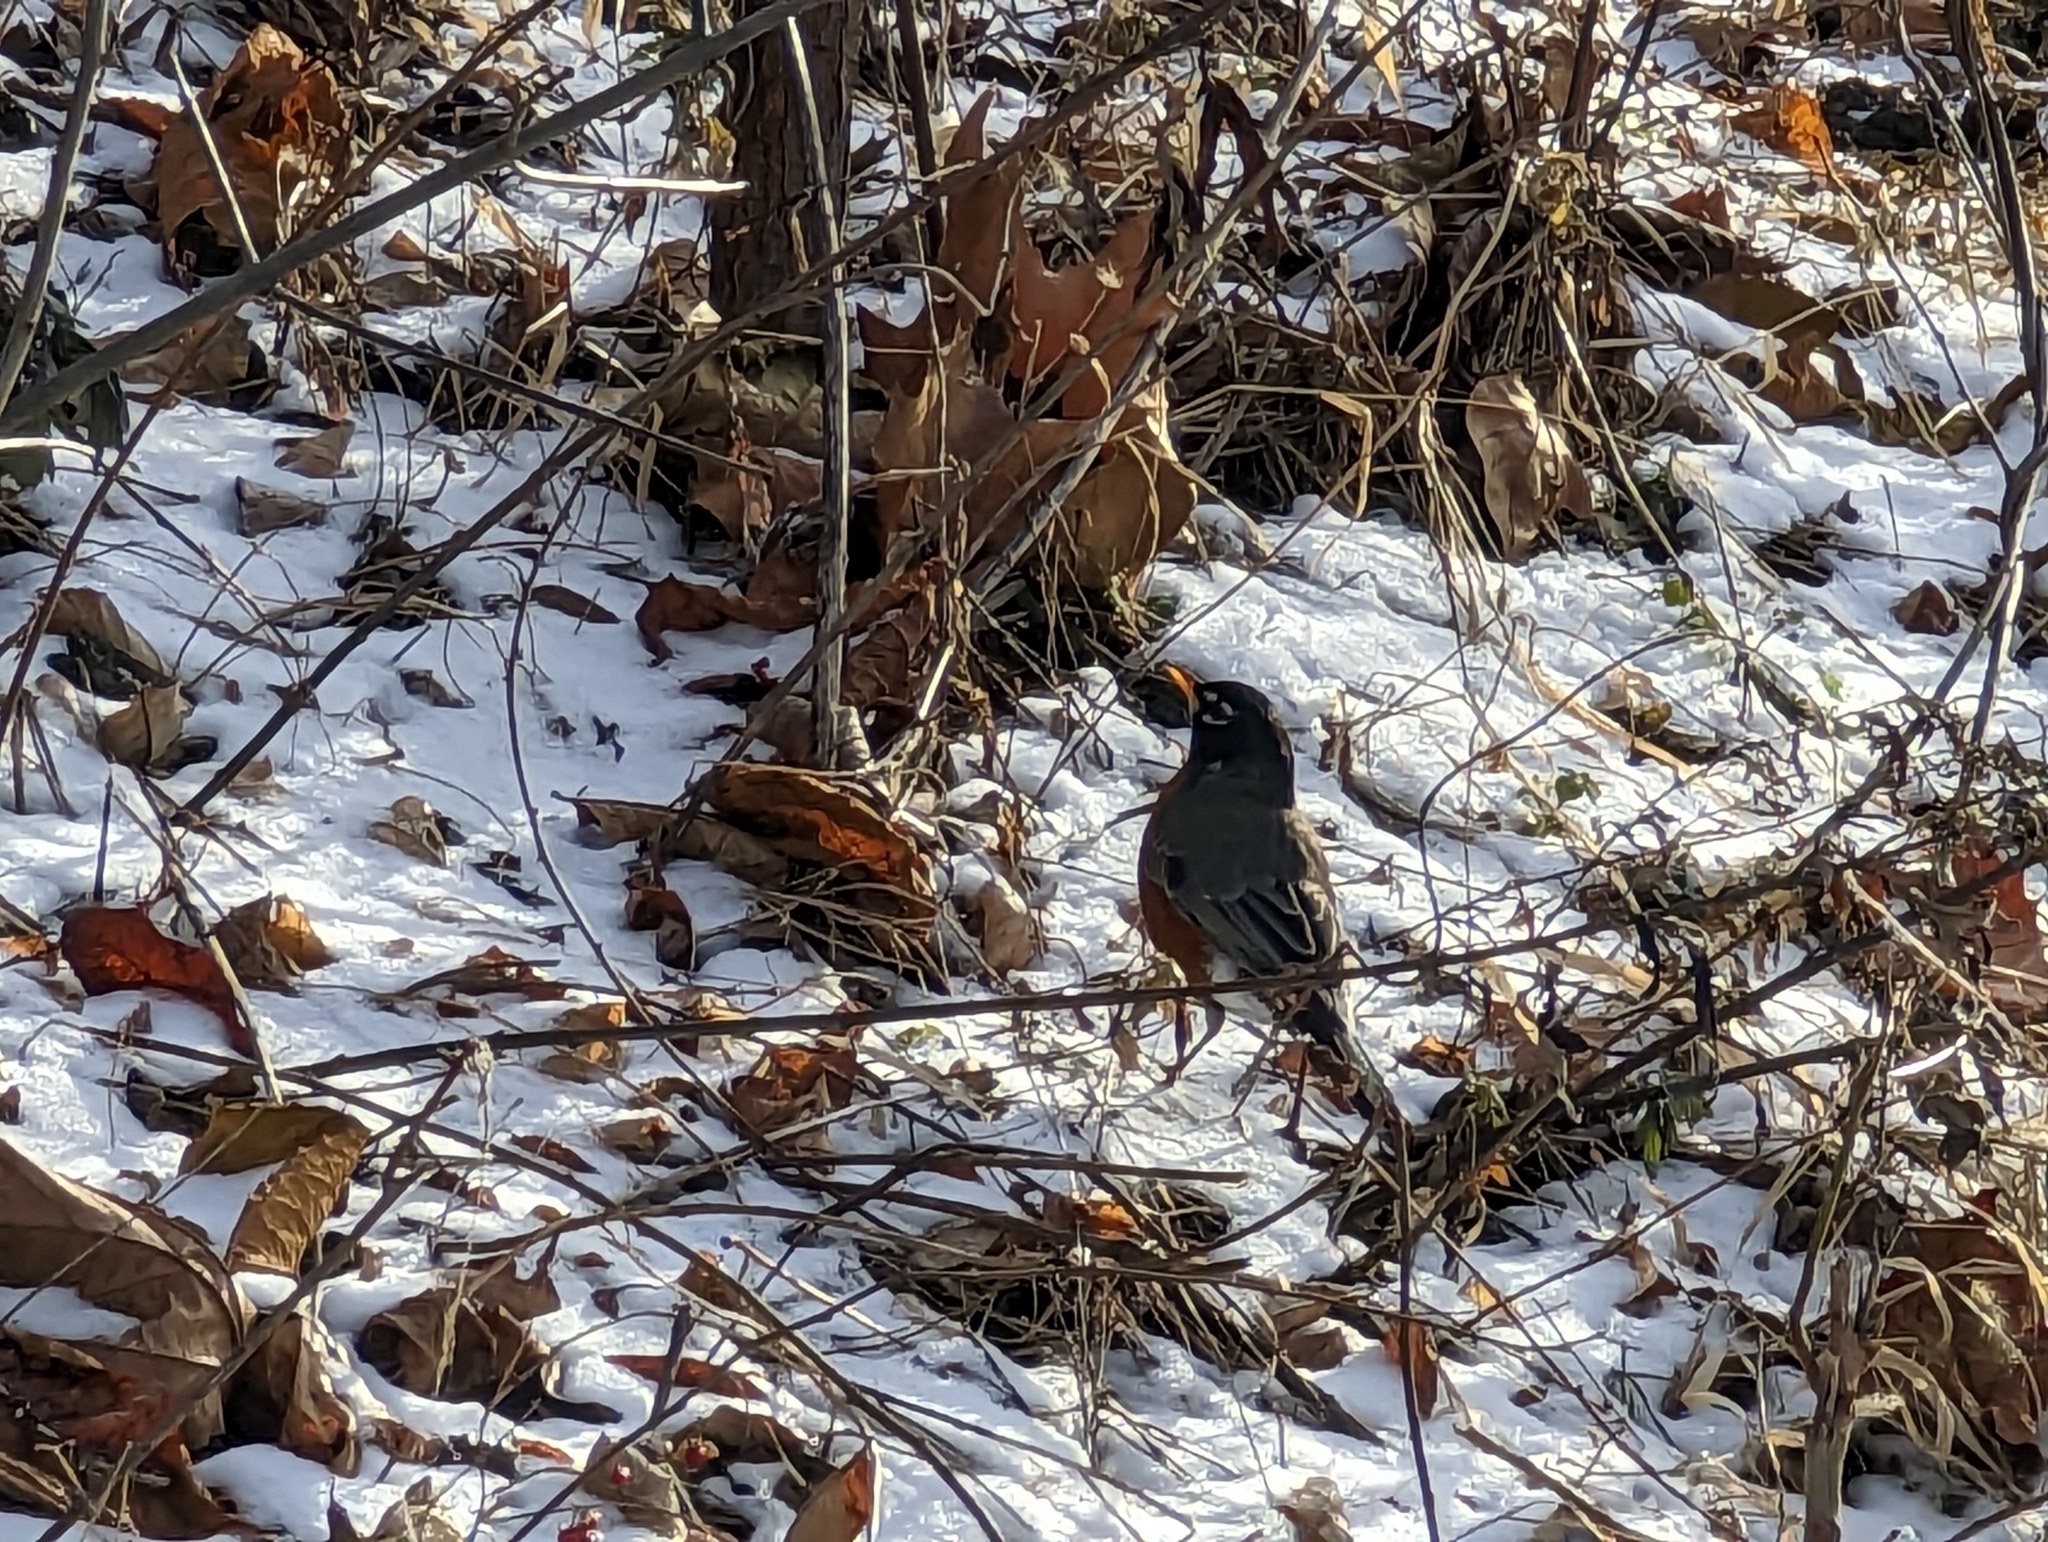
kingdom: Animalia
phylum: Chordata
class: Aves
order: Passeriformes
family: Turdidae
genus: Turdus
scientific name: Turdus migratorius
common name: American robin
